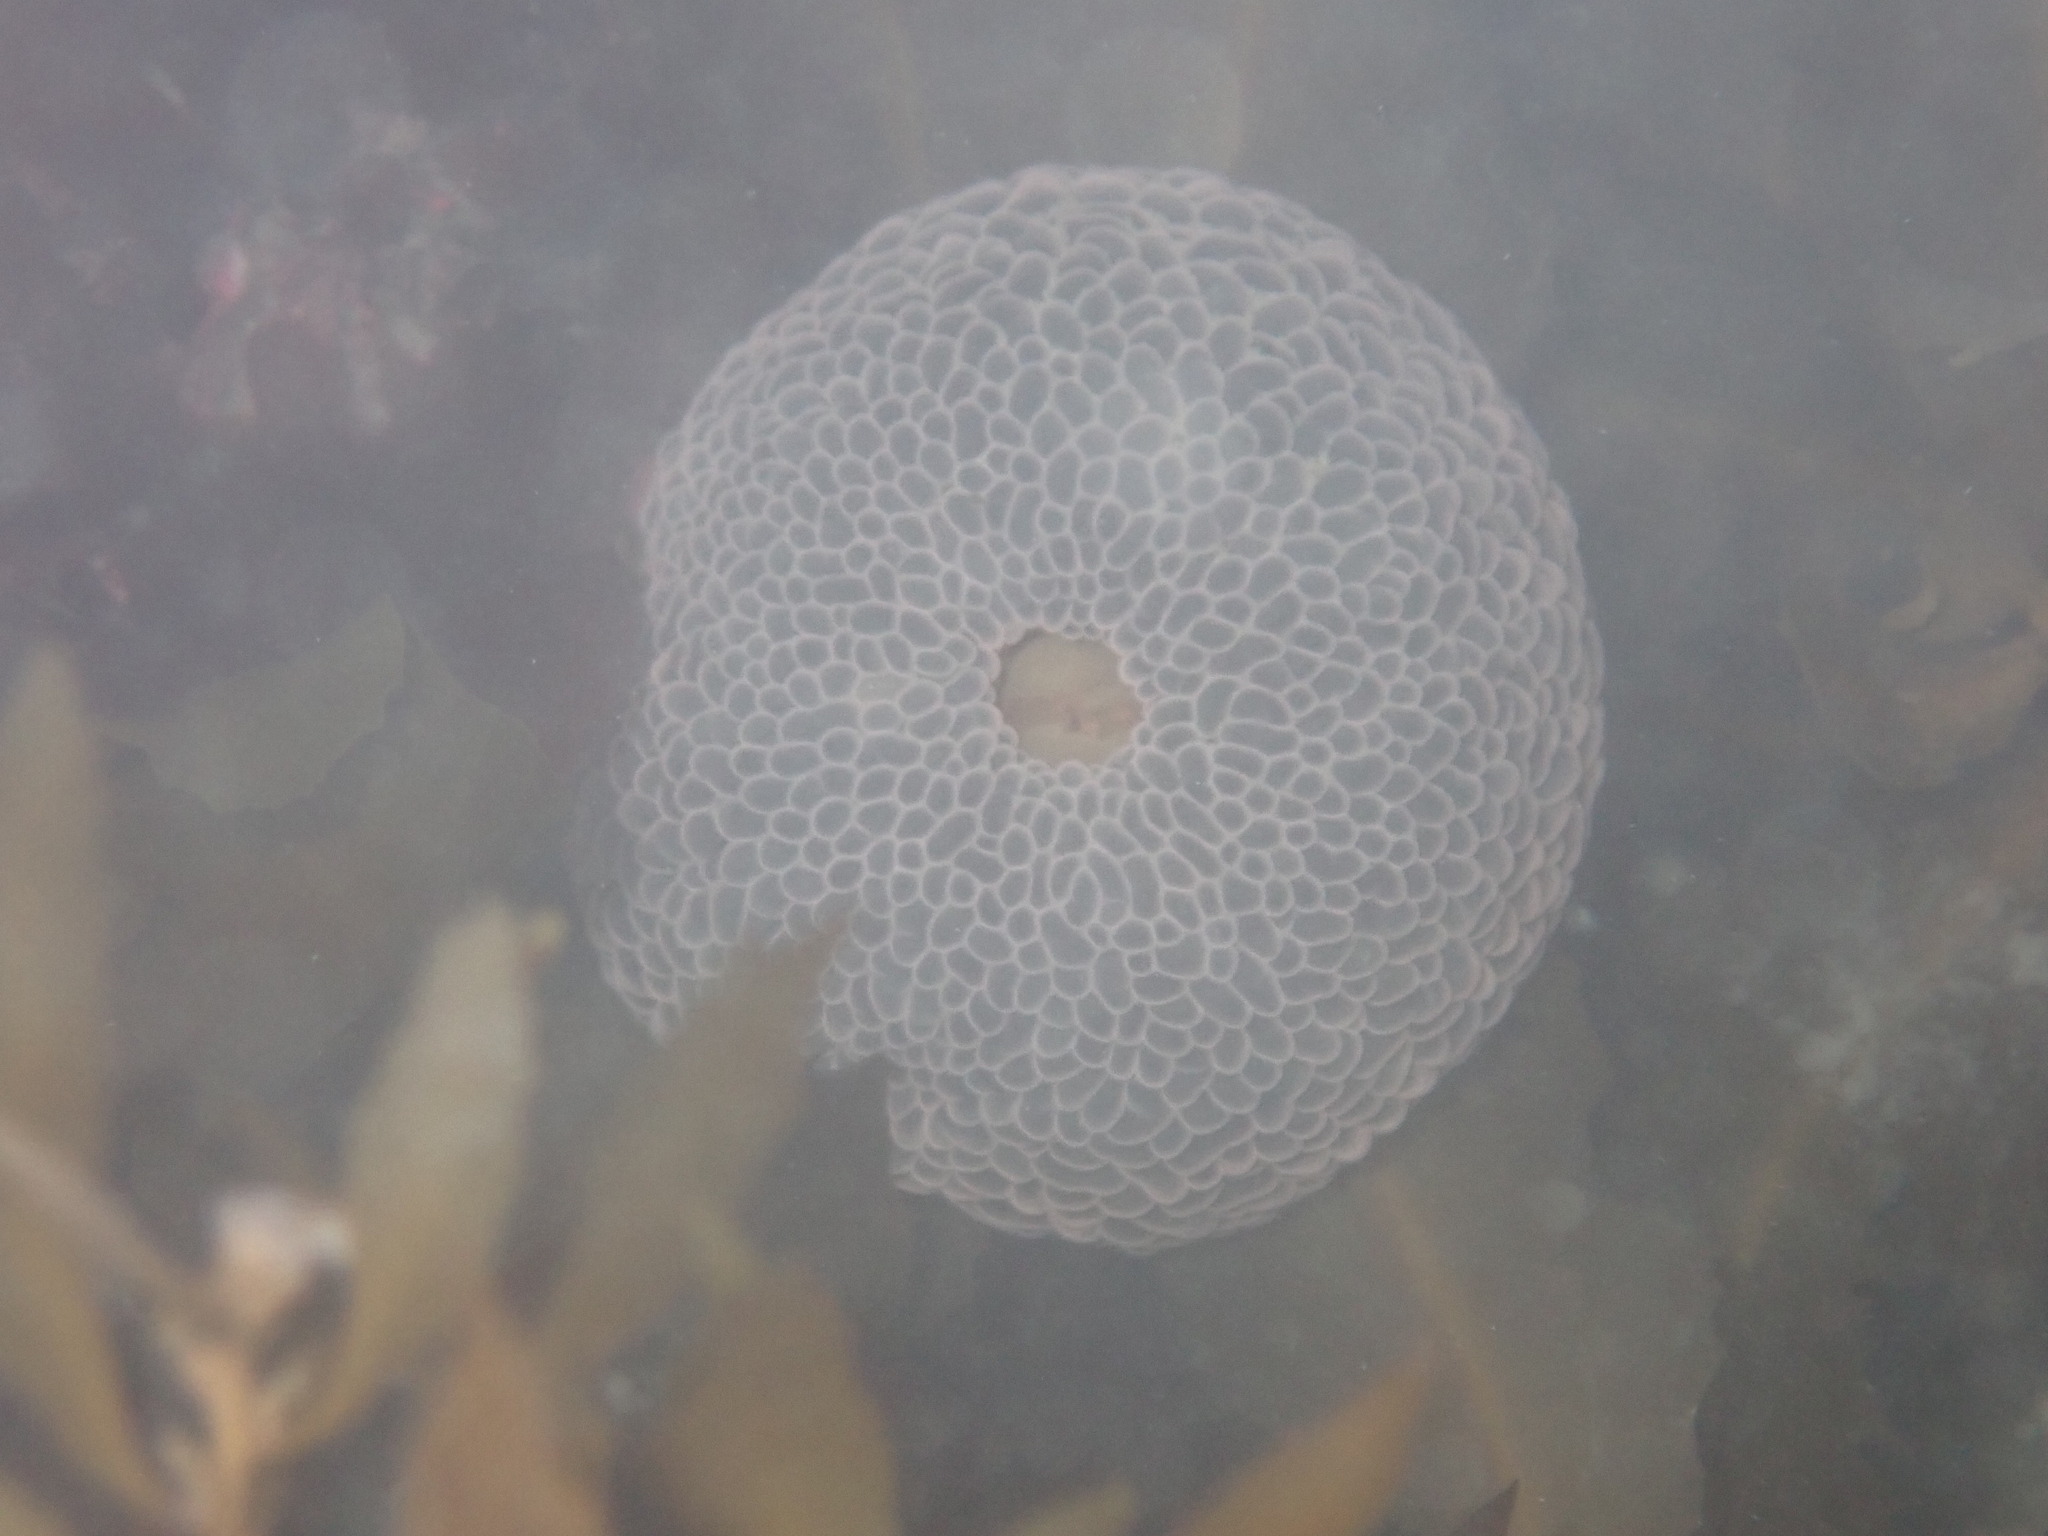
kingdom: Animalia
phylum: Cnidaria
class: Anthozoa
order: Actiniaria
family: Actiniidae
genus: Phlyctenactis
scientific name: Phlyctenactis tuberculosa
